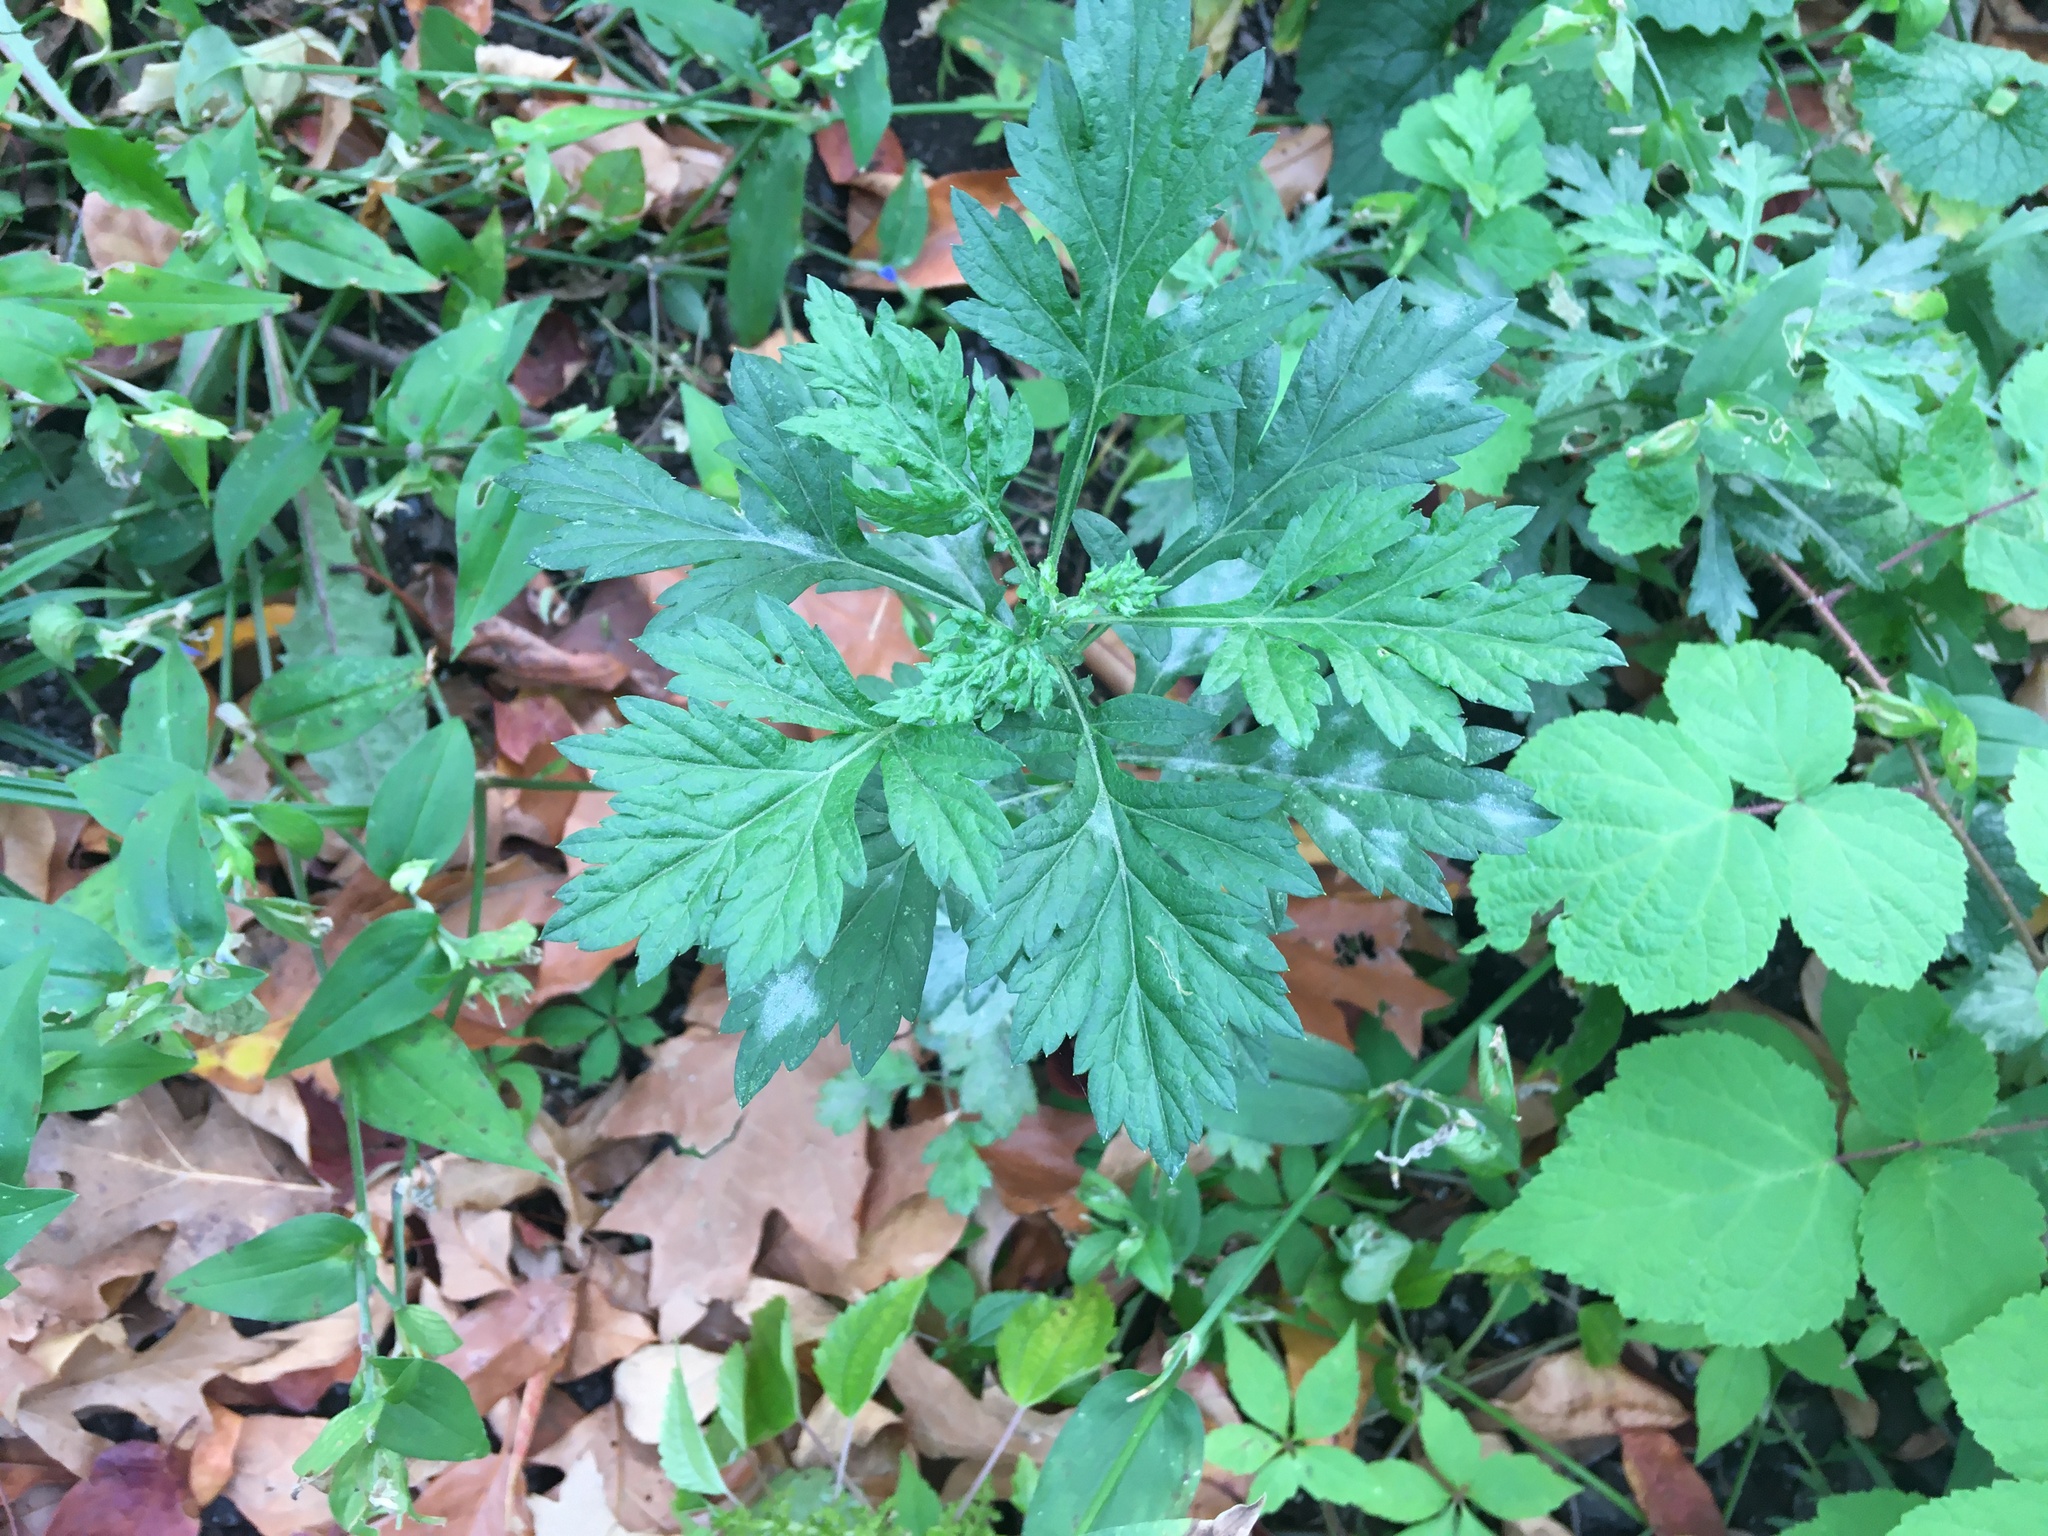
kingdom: Plantae
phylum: Tracheophyta
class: Magnoliopsida
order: Asterales
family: Asteraceae
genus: Artemisia
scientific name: Artemisia vulgaris
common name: Mugwort
